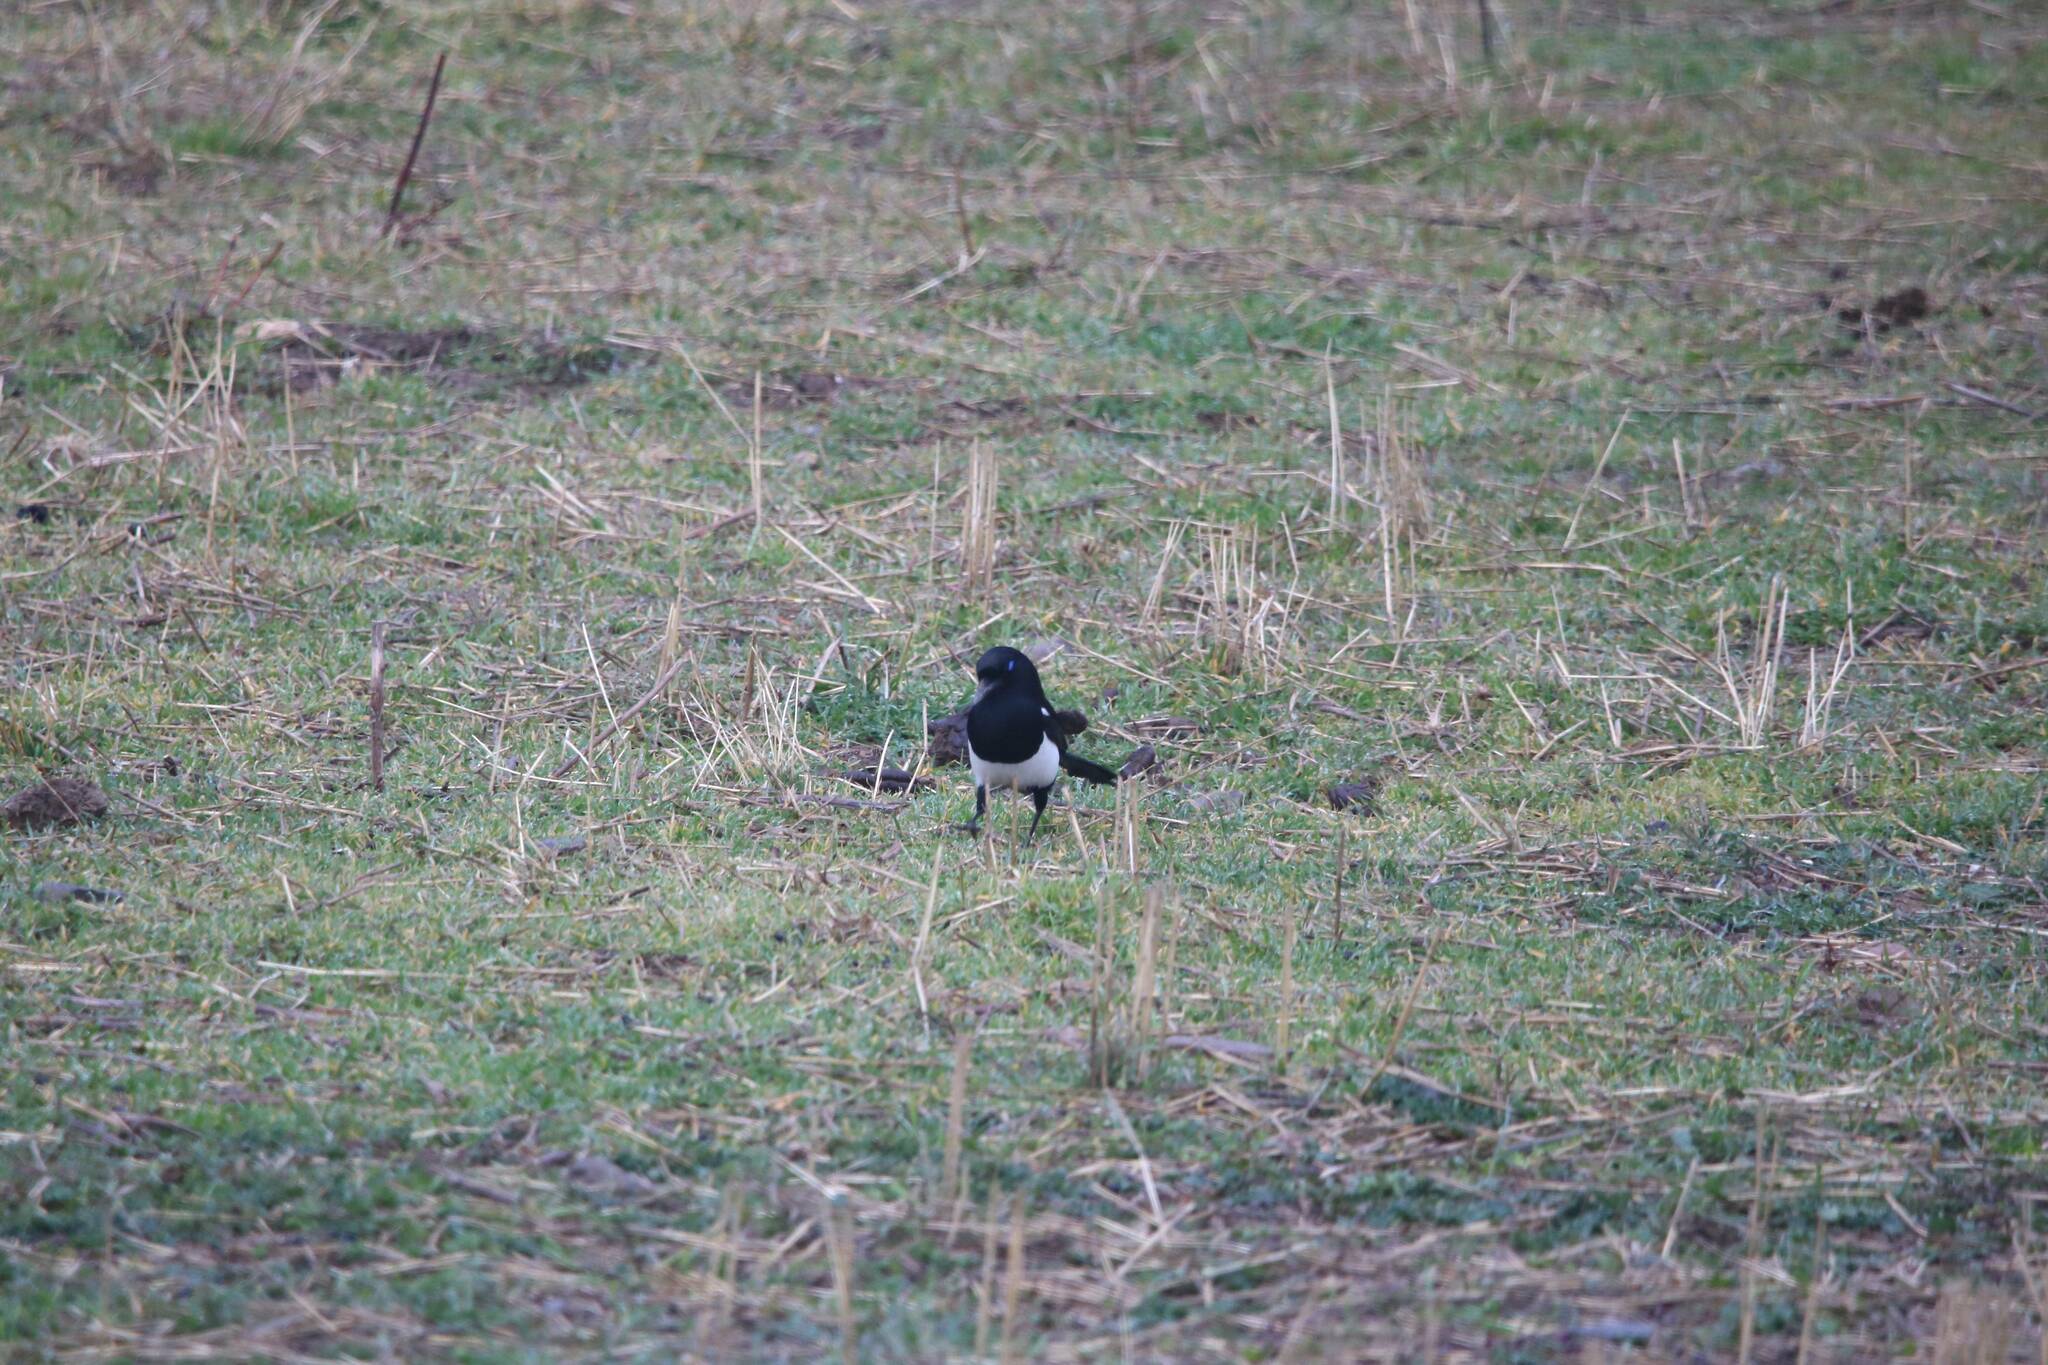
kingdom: Animalia
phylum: Chordata
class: Aves
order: Passeriformes
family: Corvidae
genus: Pica
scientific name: Pica mauritanica
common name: Maghreb magpie
